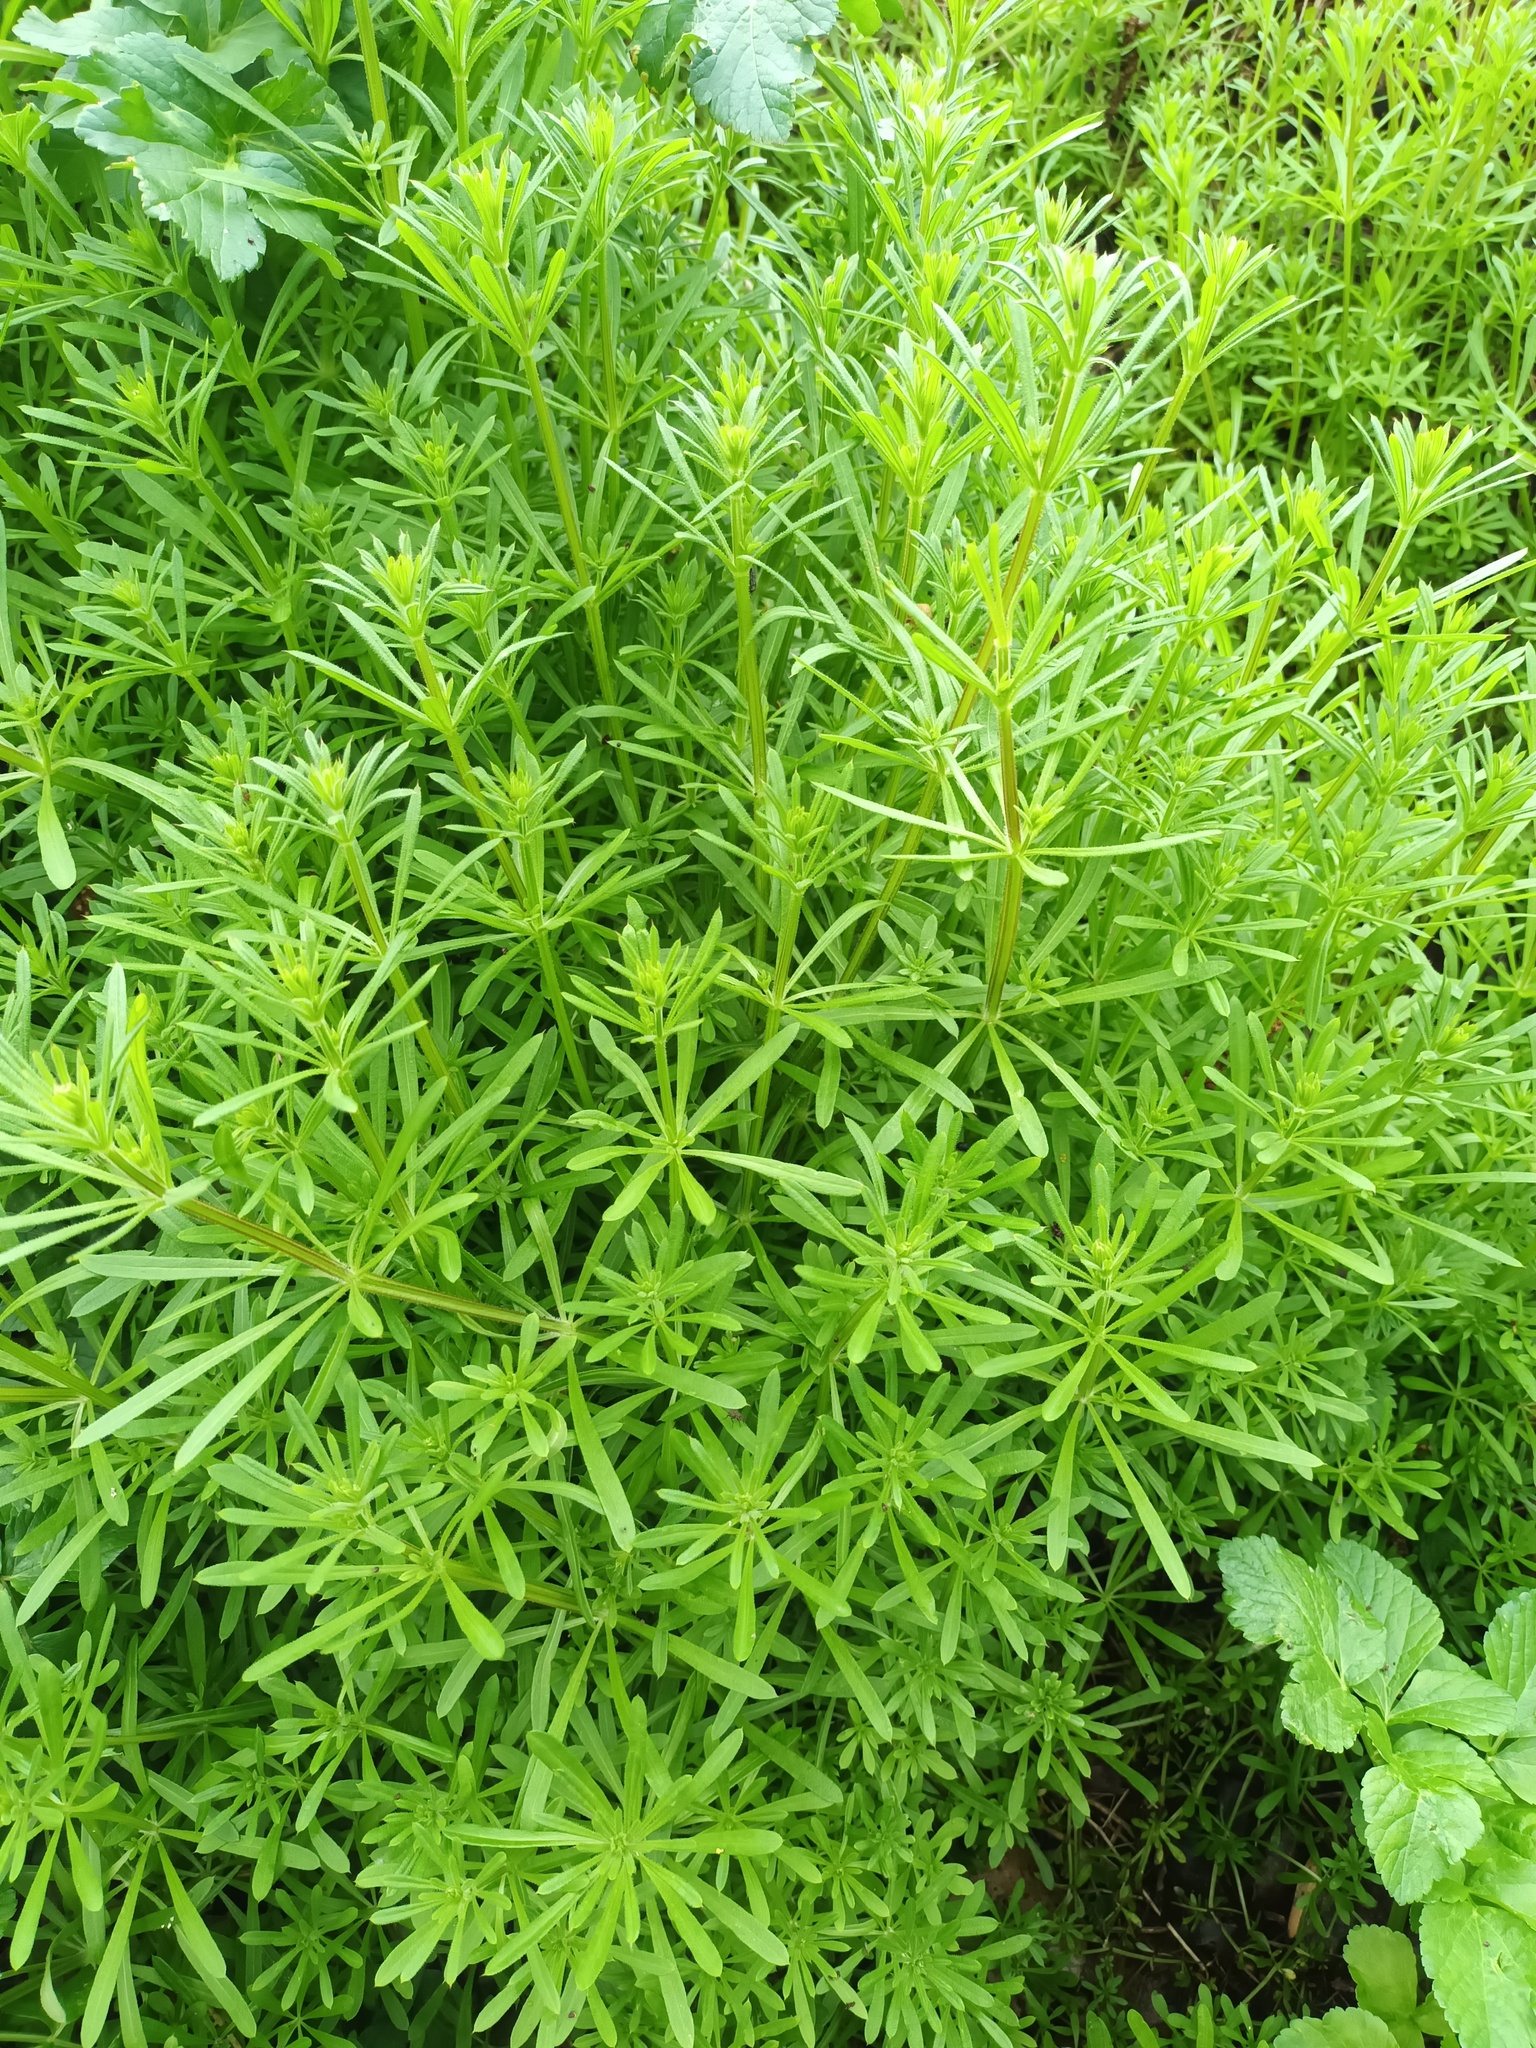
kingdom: Plantae
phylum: Tracheophyta
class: Magnoliopsida
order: Gentianales
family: Rubiaceae
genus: Galium
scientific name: Galium aparine
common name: Cleavers
